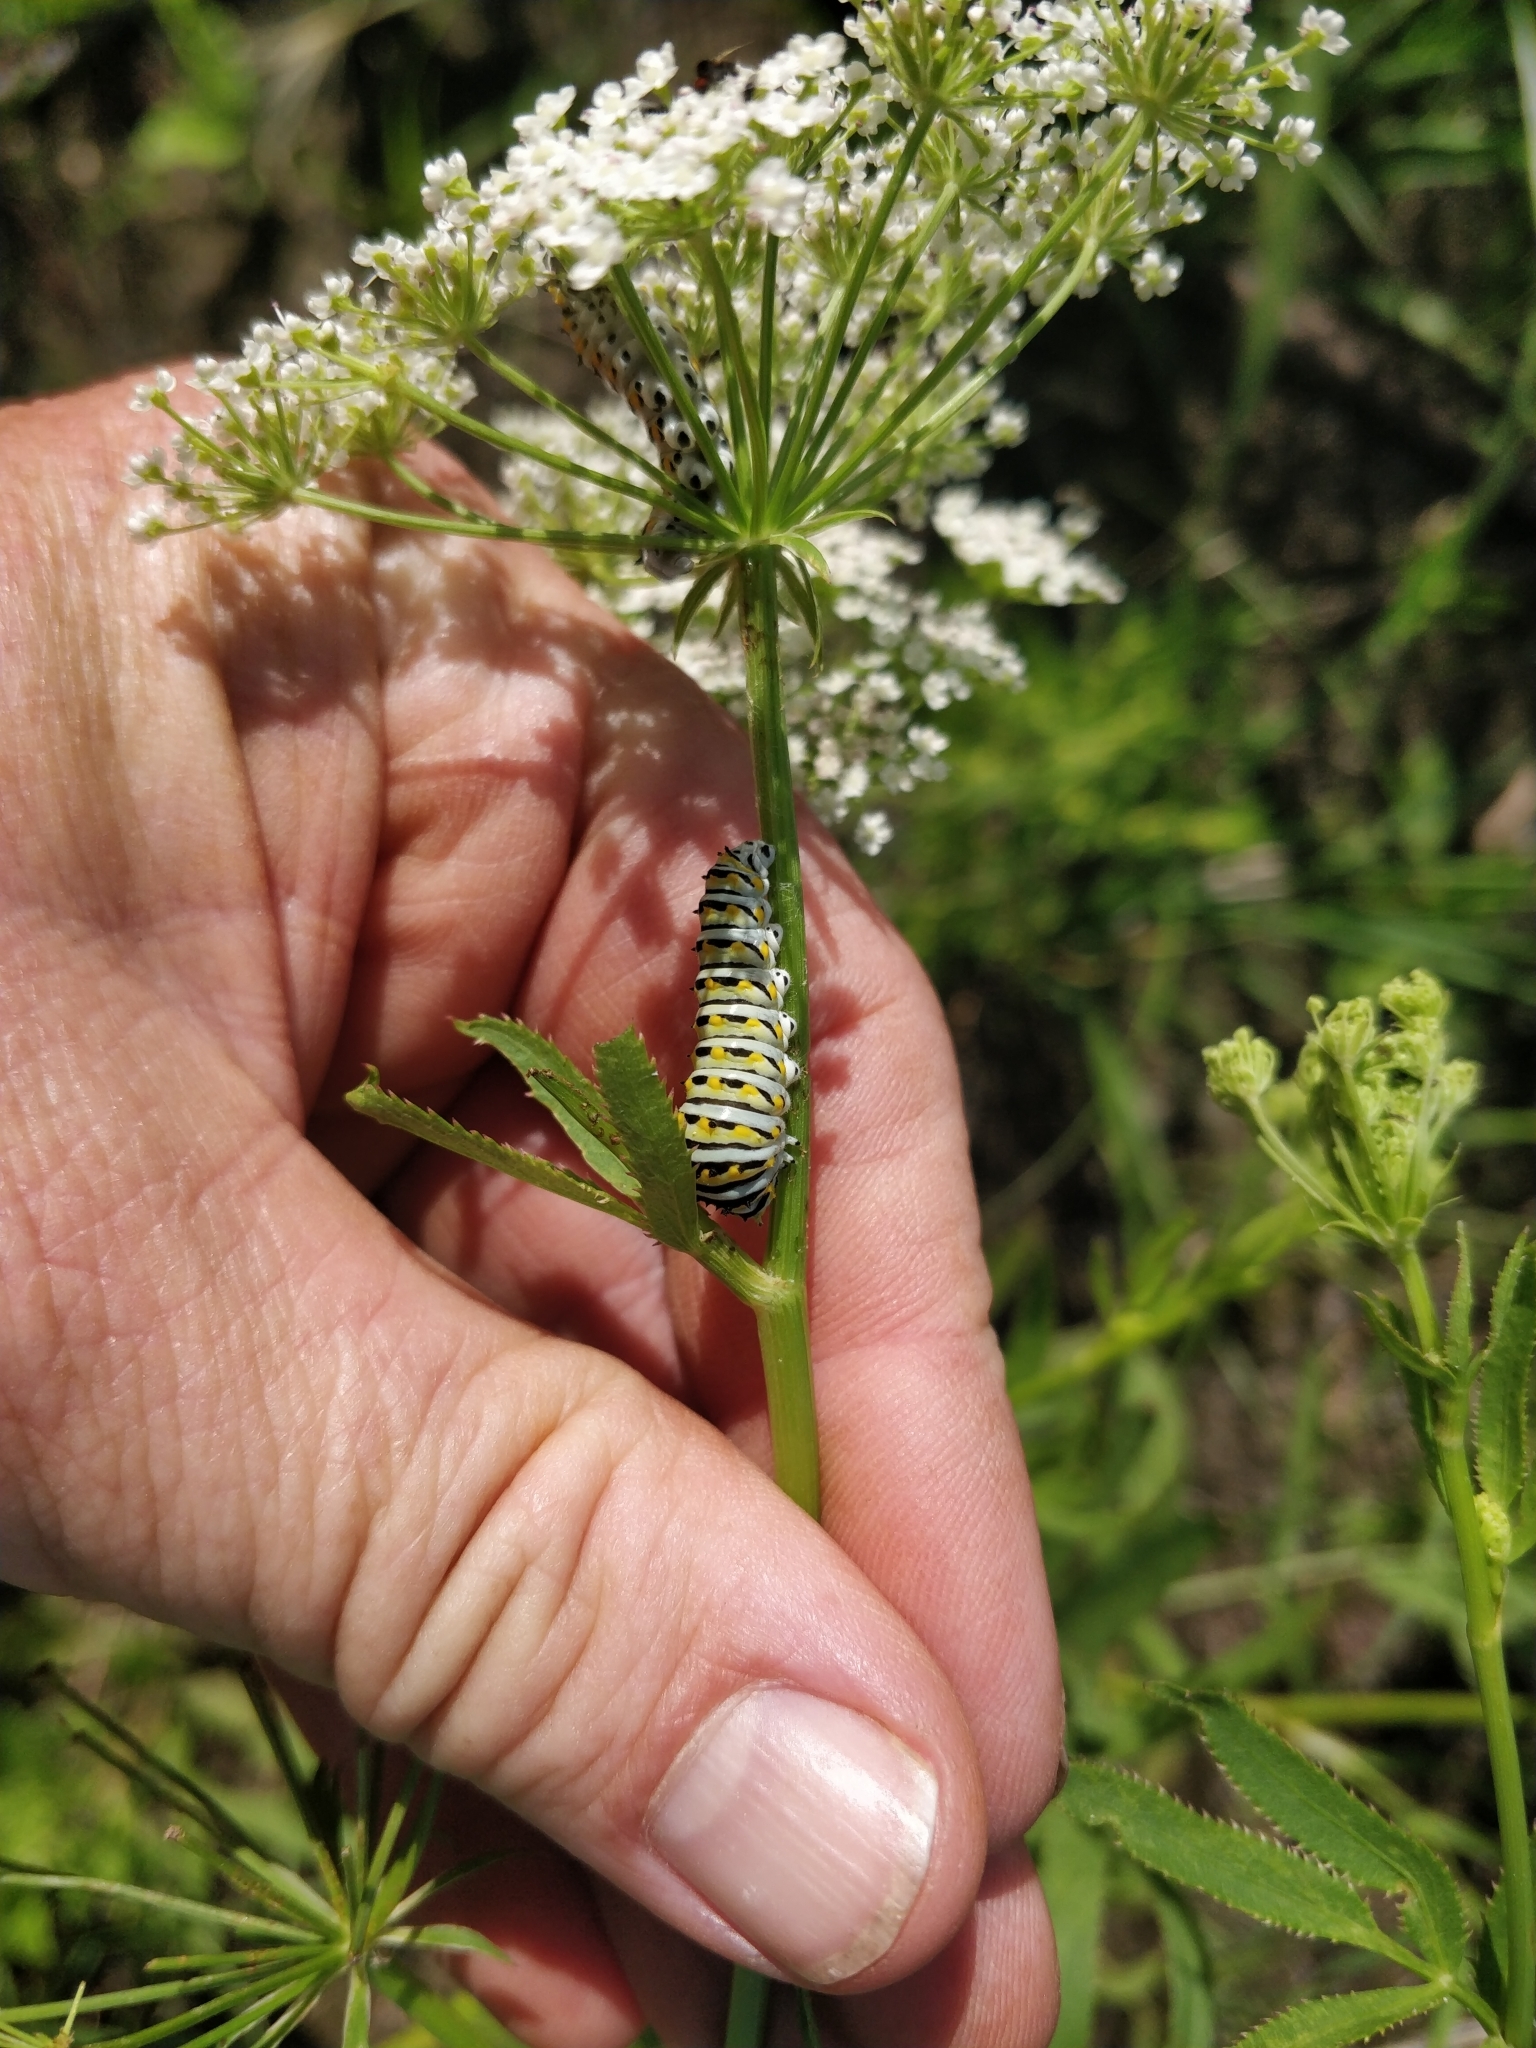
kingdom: Animalia
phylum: Arthropoda
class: Insecta
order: Lepidoptera
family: Papilionidae
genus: Papilio
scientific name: Papilio polyxenes
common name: Black swallowtail
